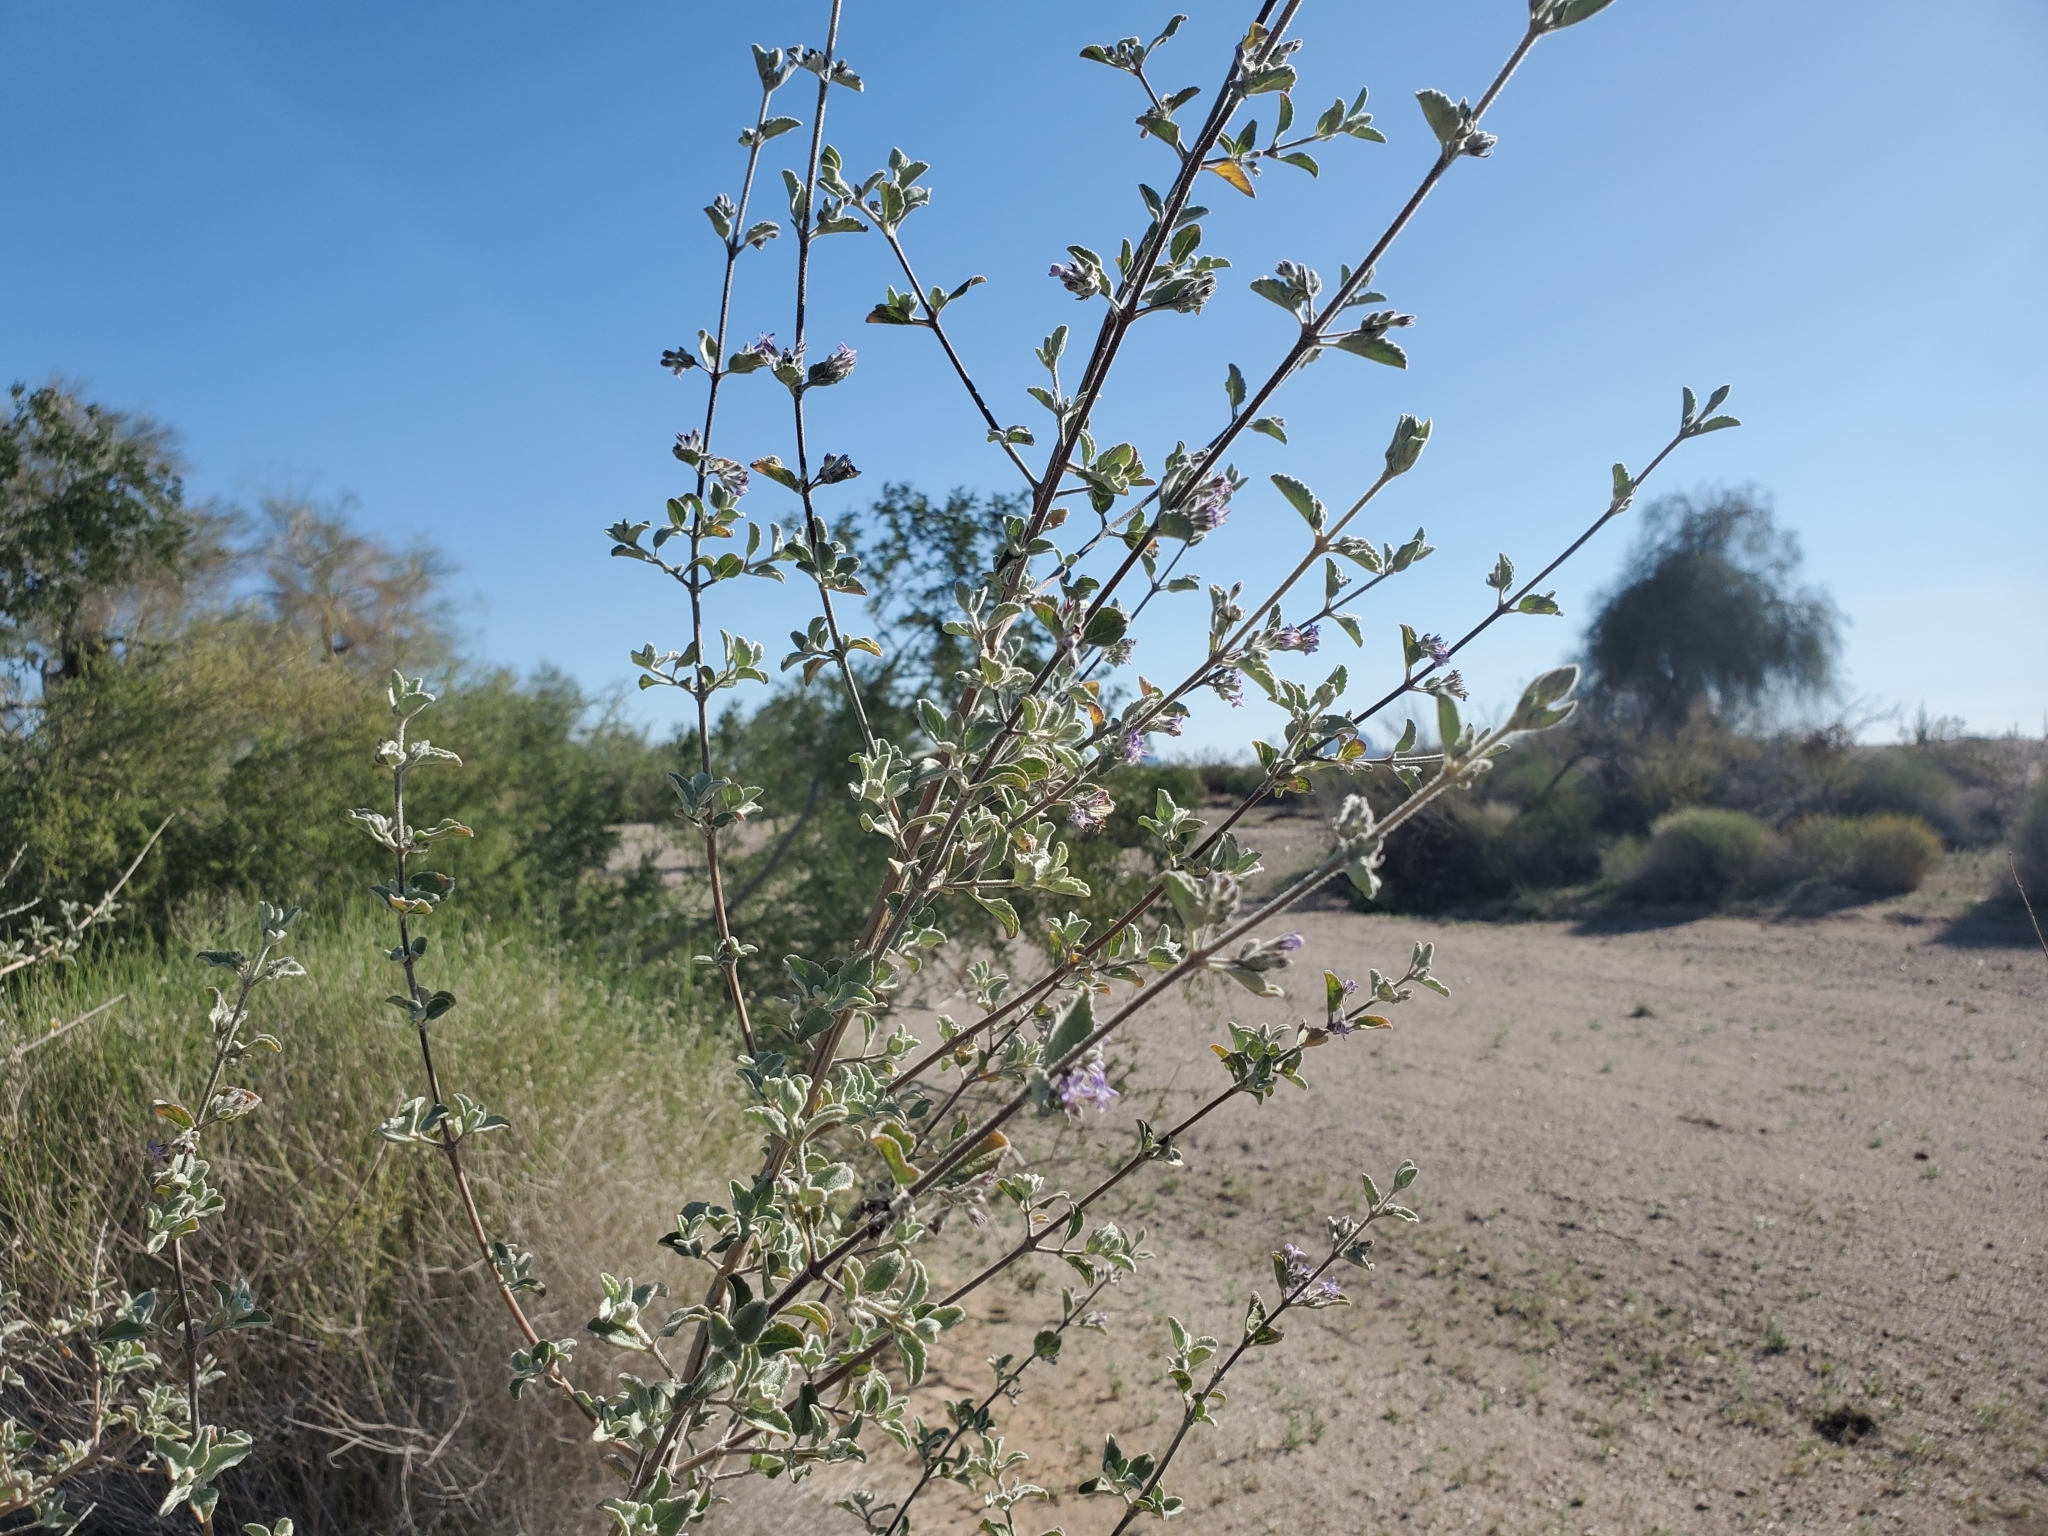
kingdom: Plantae
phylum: Tracheophyta
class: Magnoliopsida
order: Lamiales
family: Lamiaceae
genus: Condea
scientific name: Condea emoryi
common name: Chia
